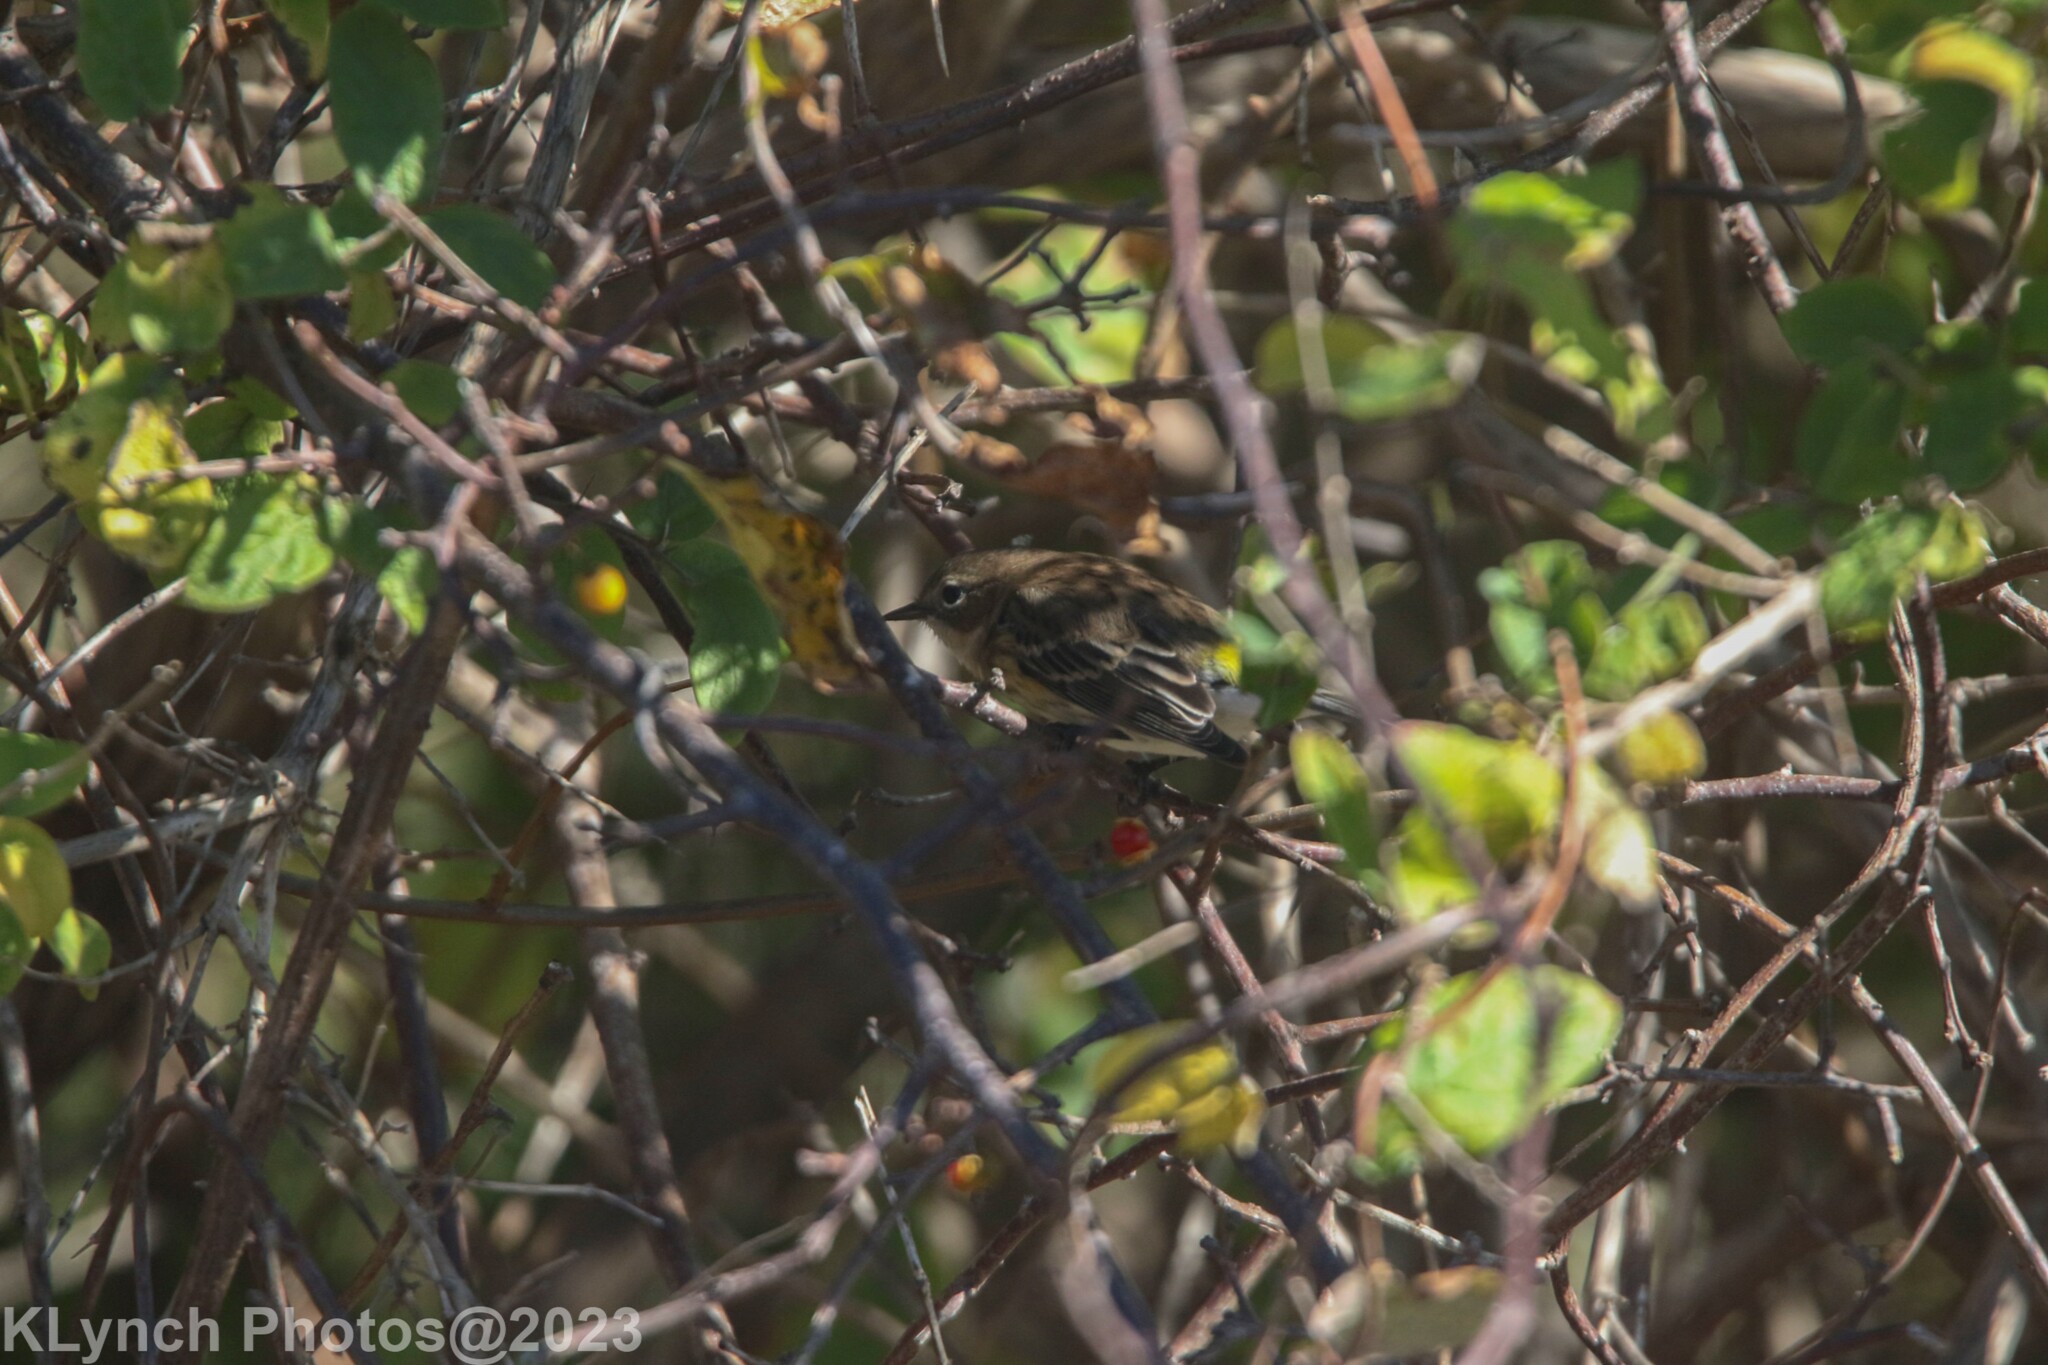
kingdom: Animalia
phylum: Chordata
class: Aves
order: Passeriformes
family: Parulidae
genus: Setophaga
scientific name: Setophaga coronata
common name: Myrtle warbler
